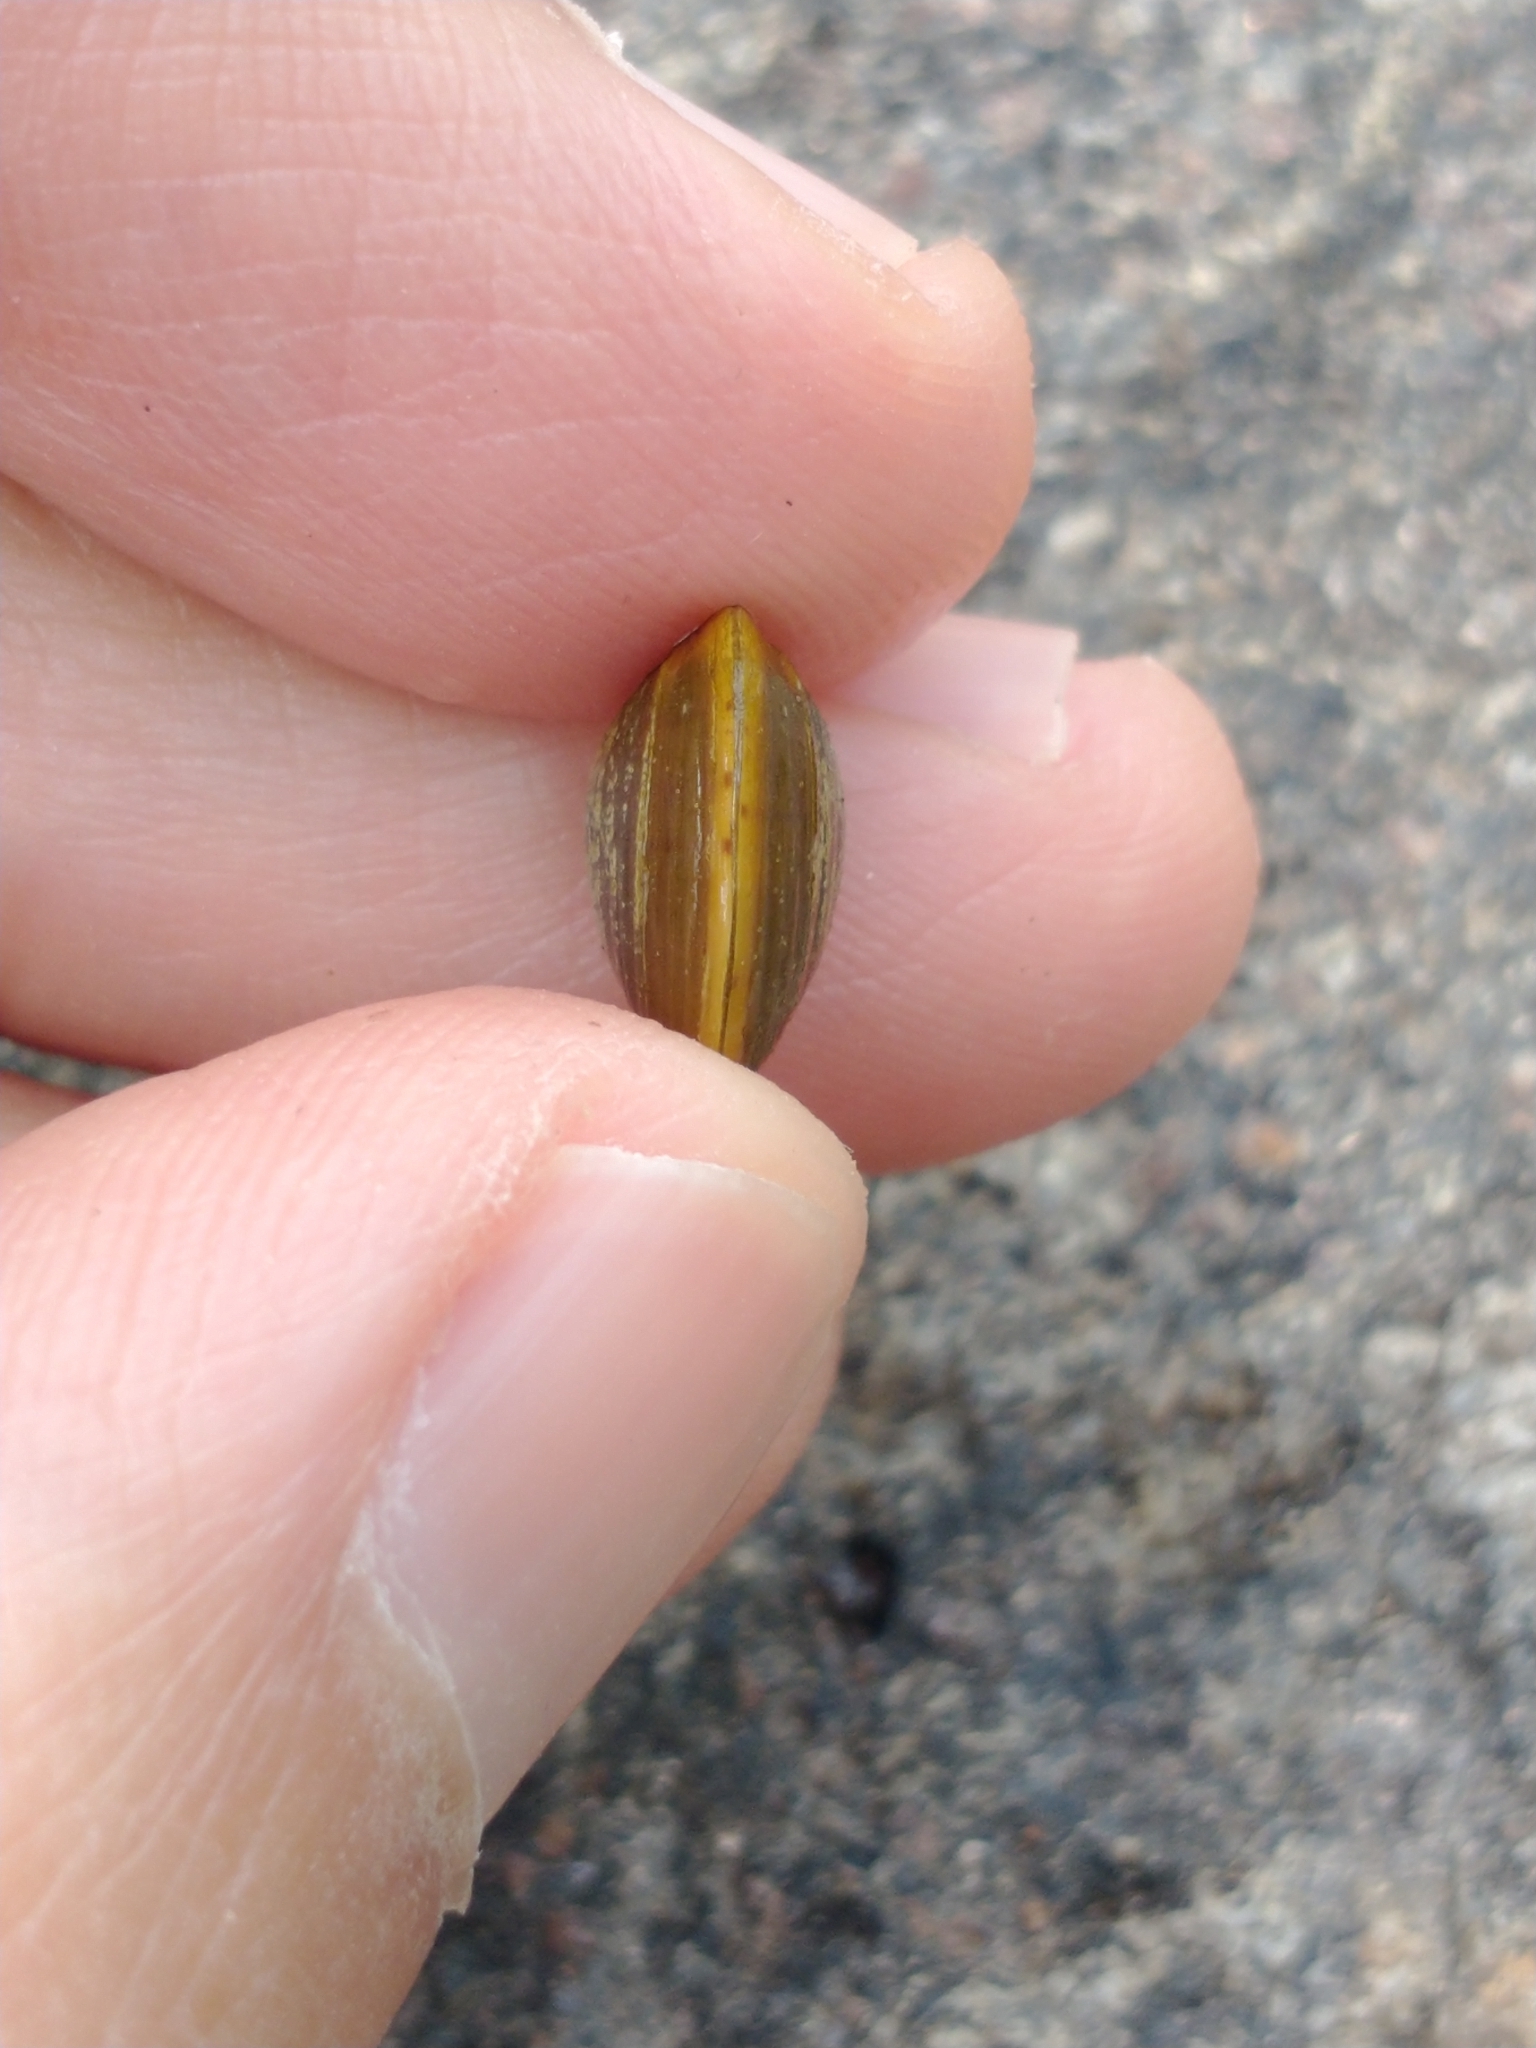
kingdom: Animalia
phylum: Mollusca
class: Bivalvia
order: Venerida
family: Cyrenidae
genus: Corbicula
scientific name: Corbicula largillierti
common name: Purple asian clam
